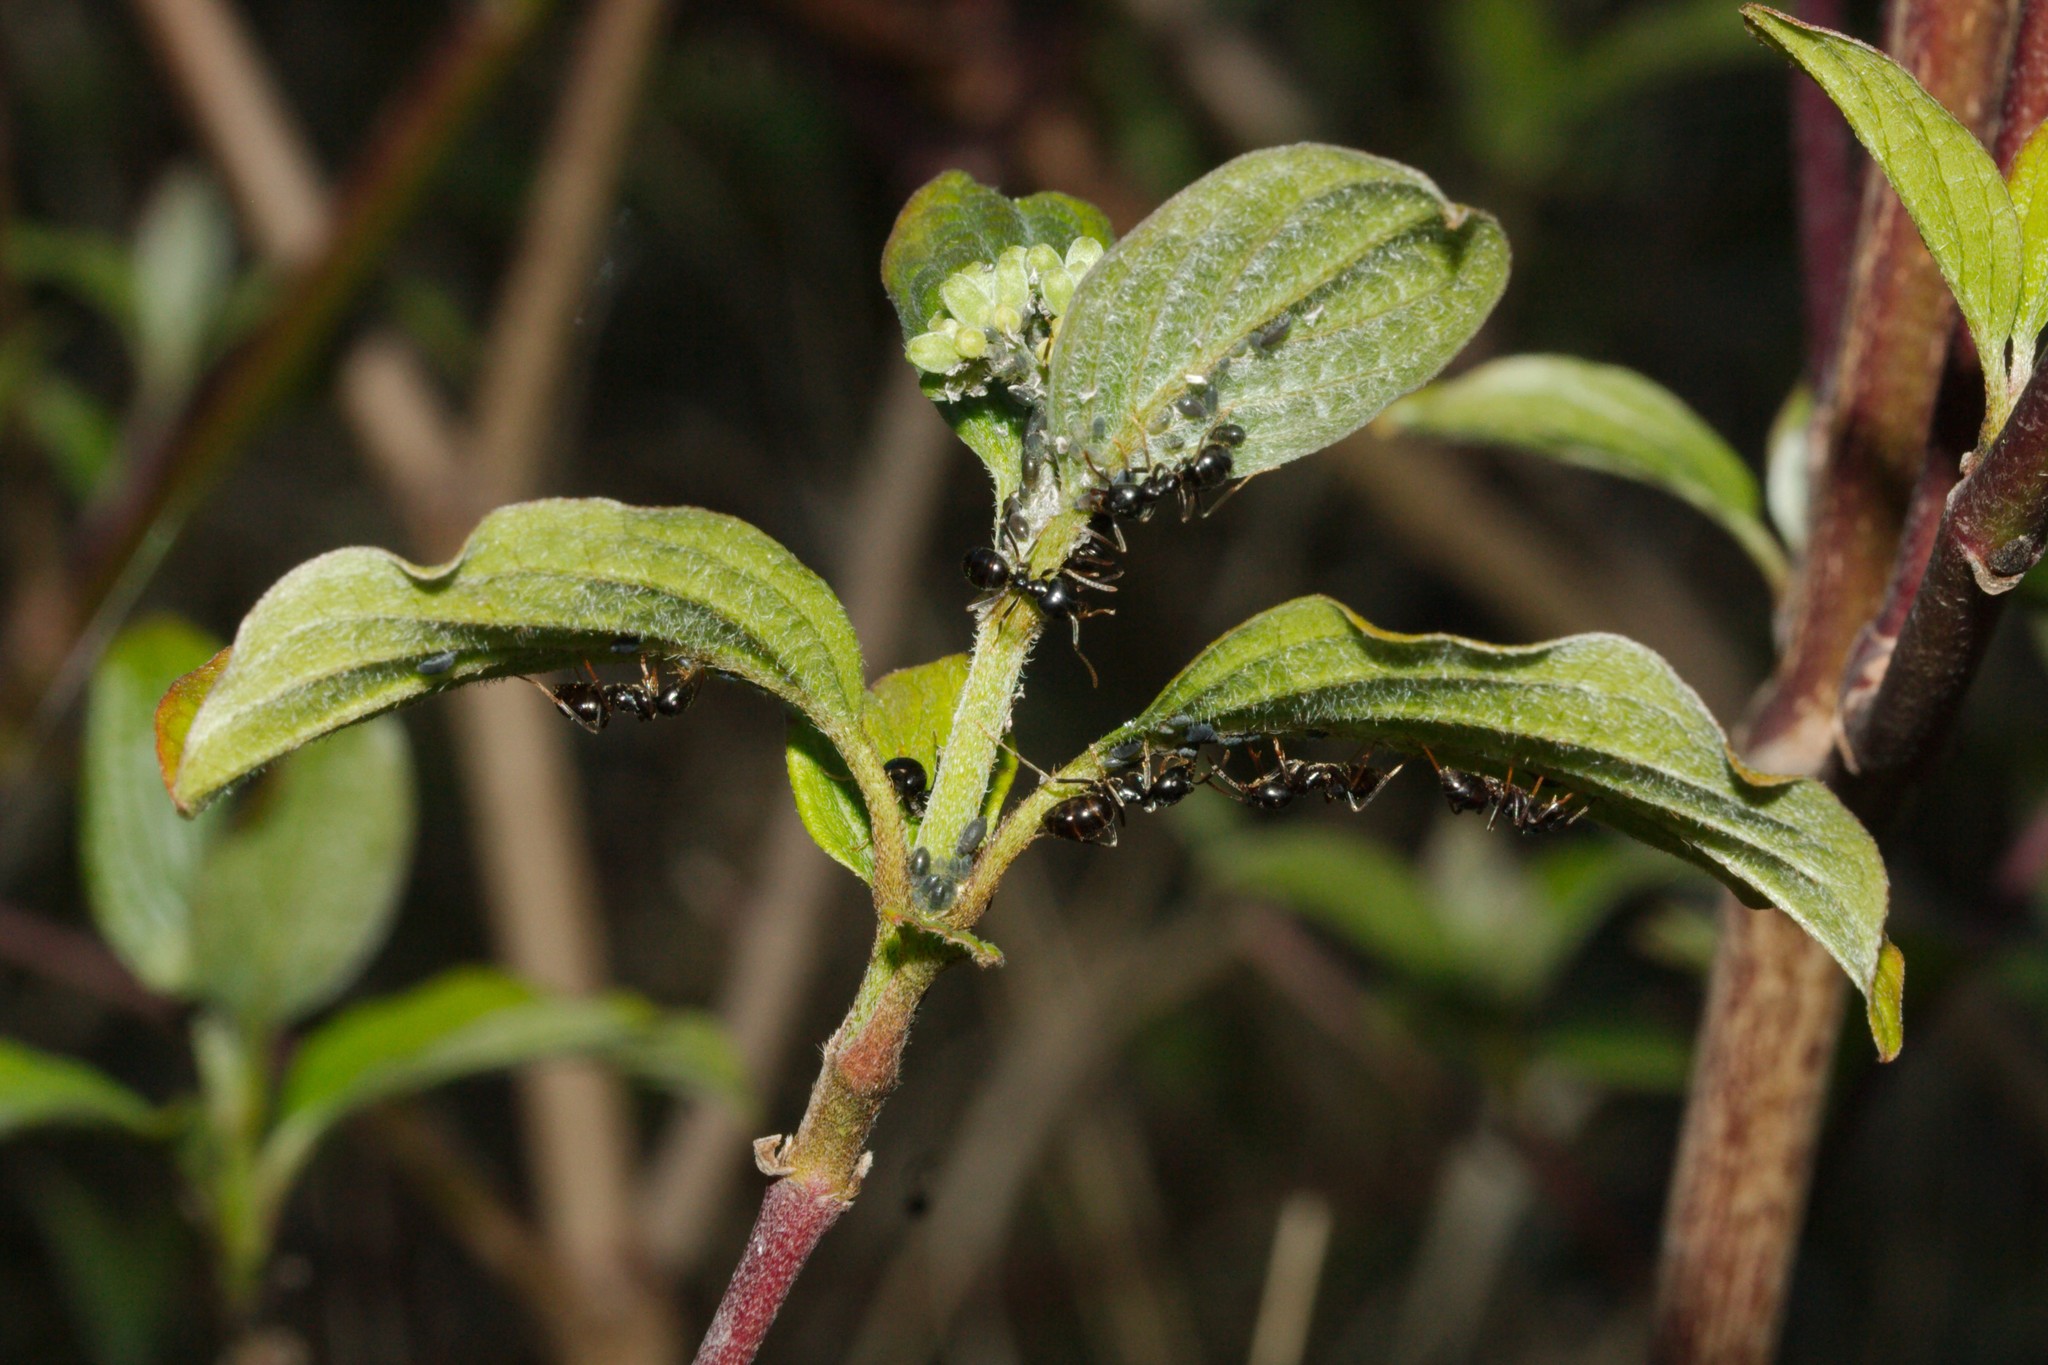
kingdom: Animalia
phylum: Arthropoda
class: Insecta
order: Hymenoptera
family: Formicidae
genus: Lasius
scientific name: Lasius fuliginosus
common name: Jet ant
